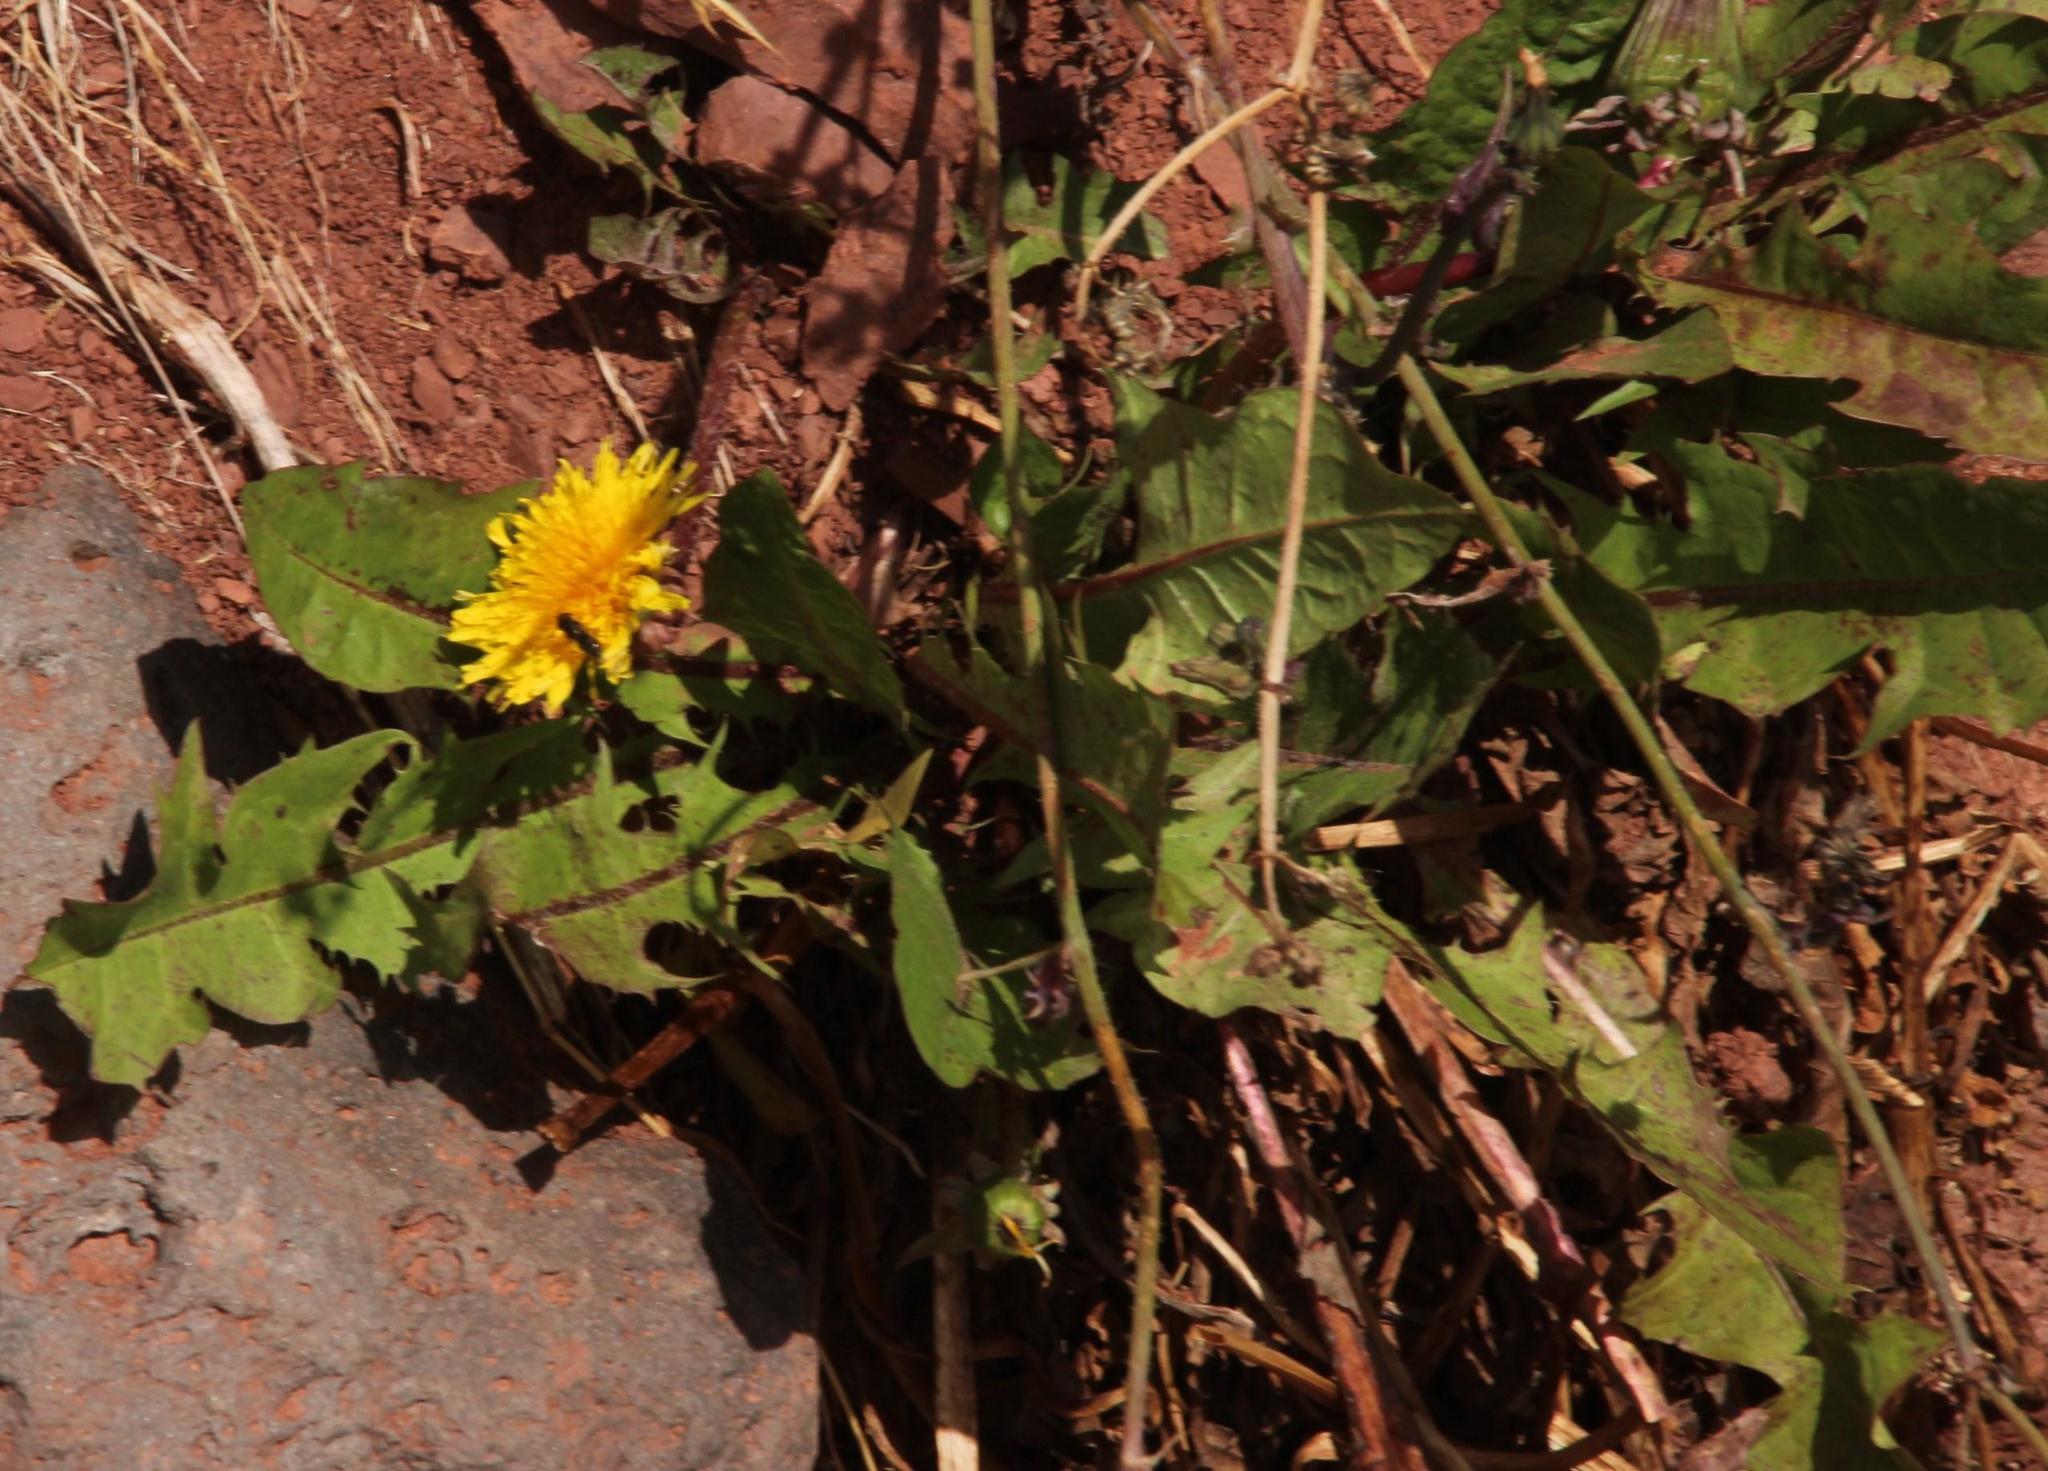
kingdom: Plantae
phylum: Tracheophyta
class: Magnoliopsida
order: Asterales
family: Asteraceae
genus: Taraxacum
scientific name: Taraxacum officinale
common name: Common dandelion
